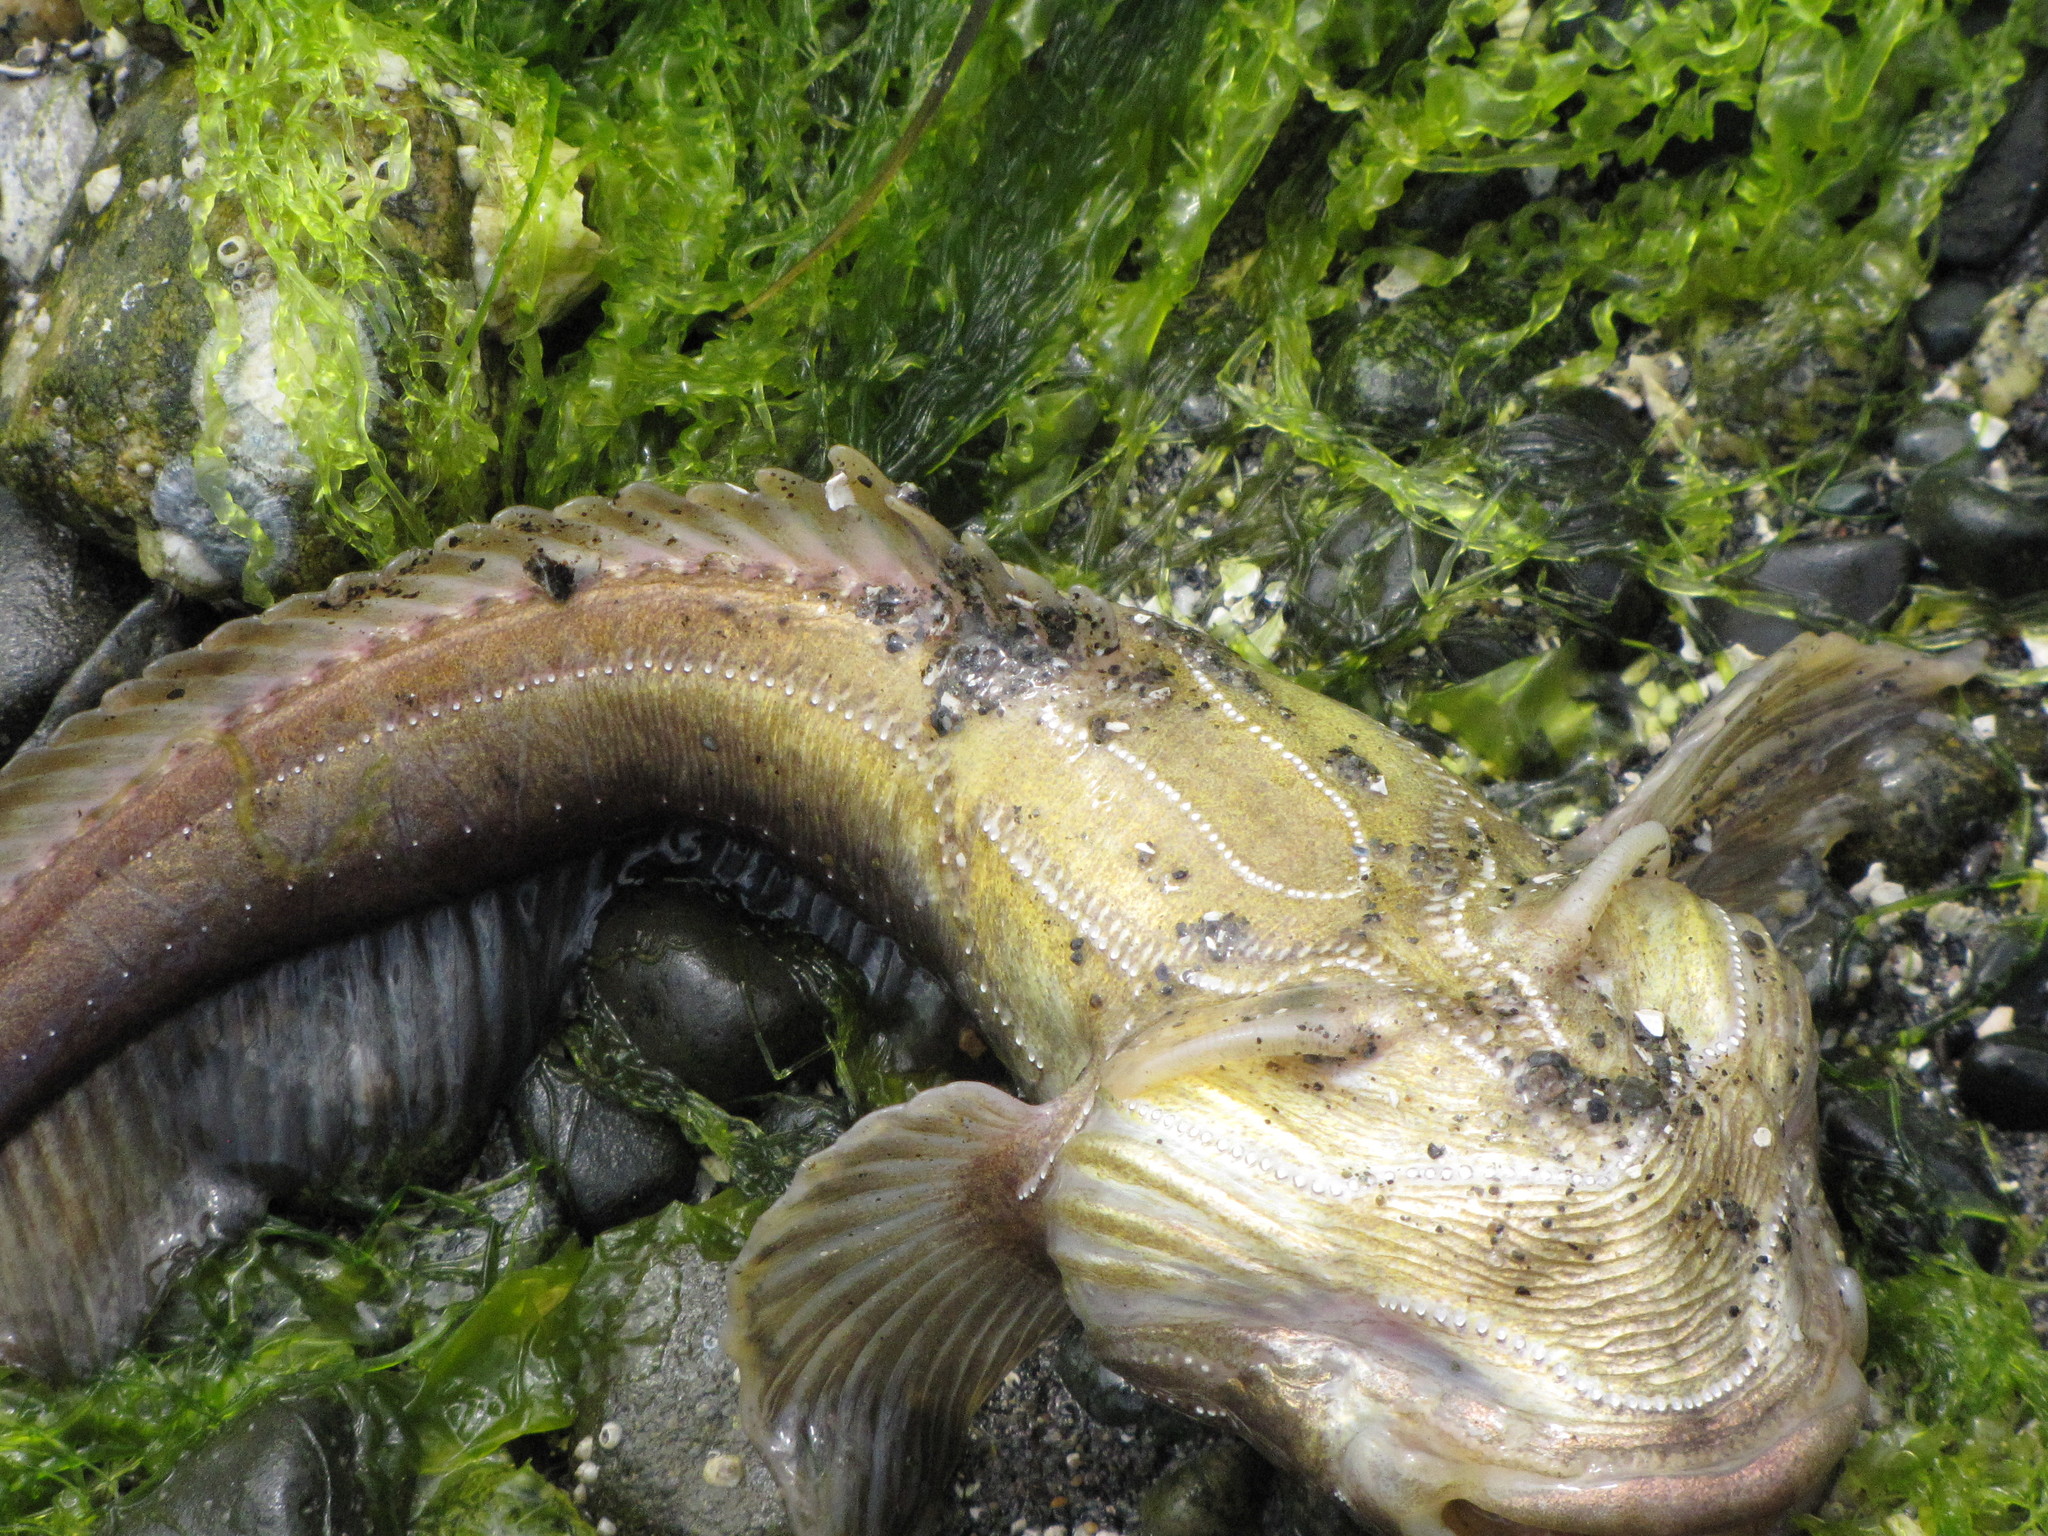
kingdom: Animalia
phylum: Chordata
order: Batrachoidiformes
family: Batrachoididae
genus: Porichthys
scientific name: Porichthys notatus
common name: Plainfin midshipman
